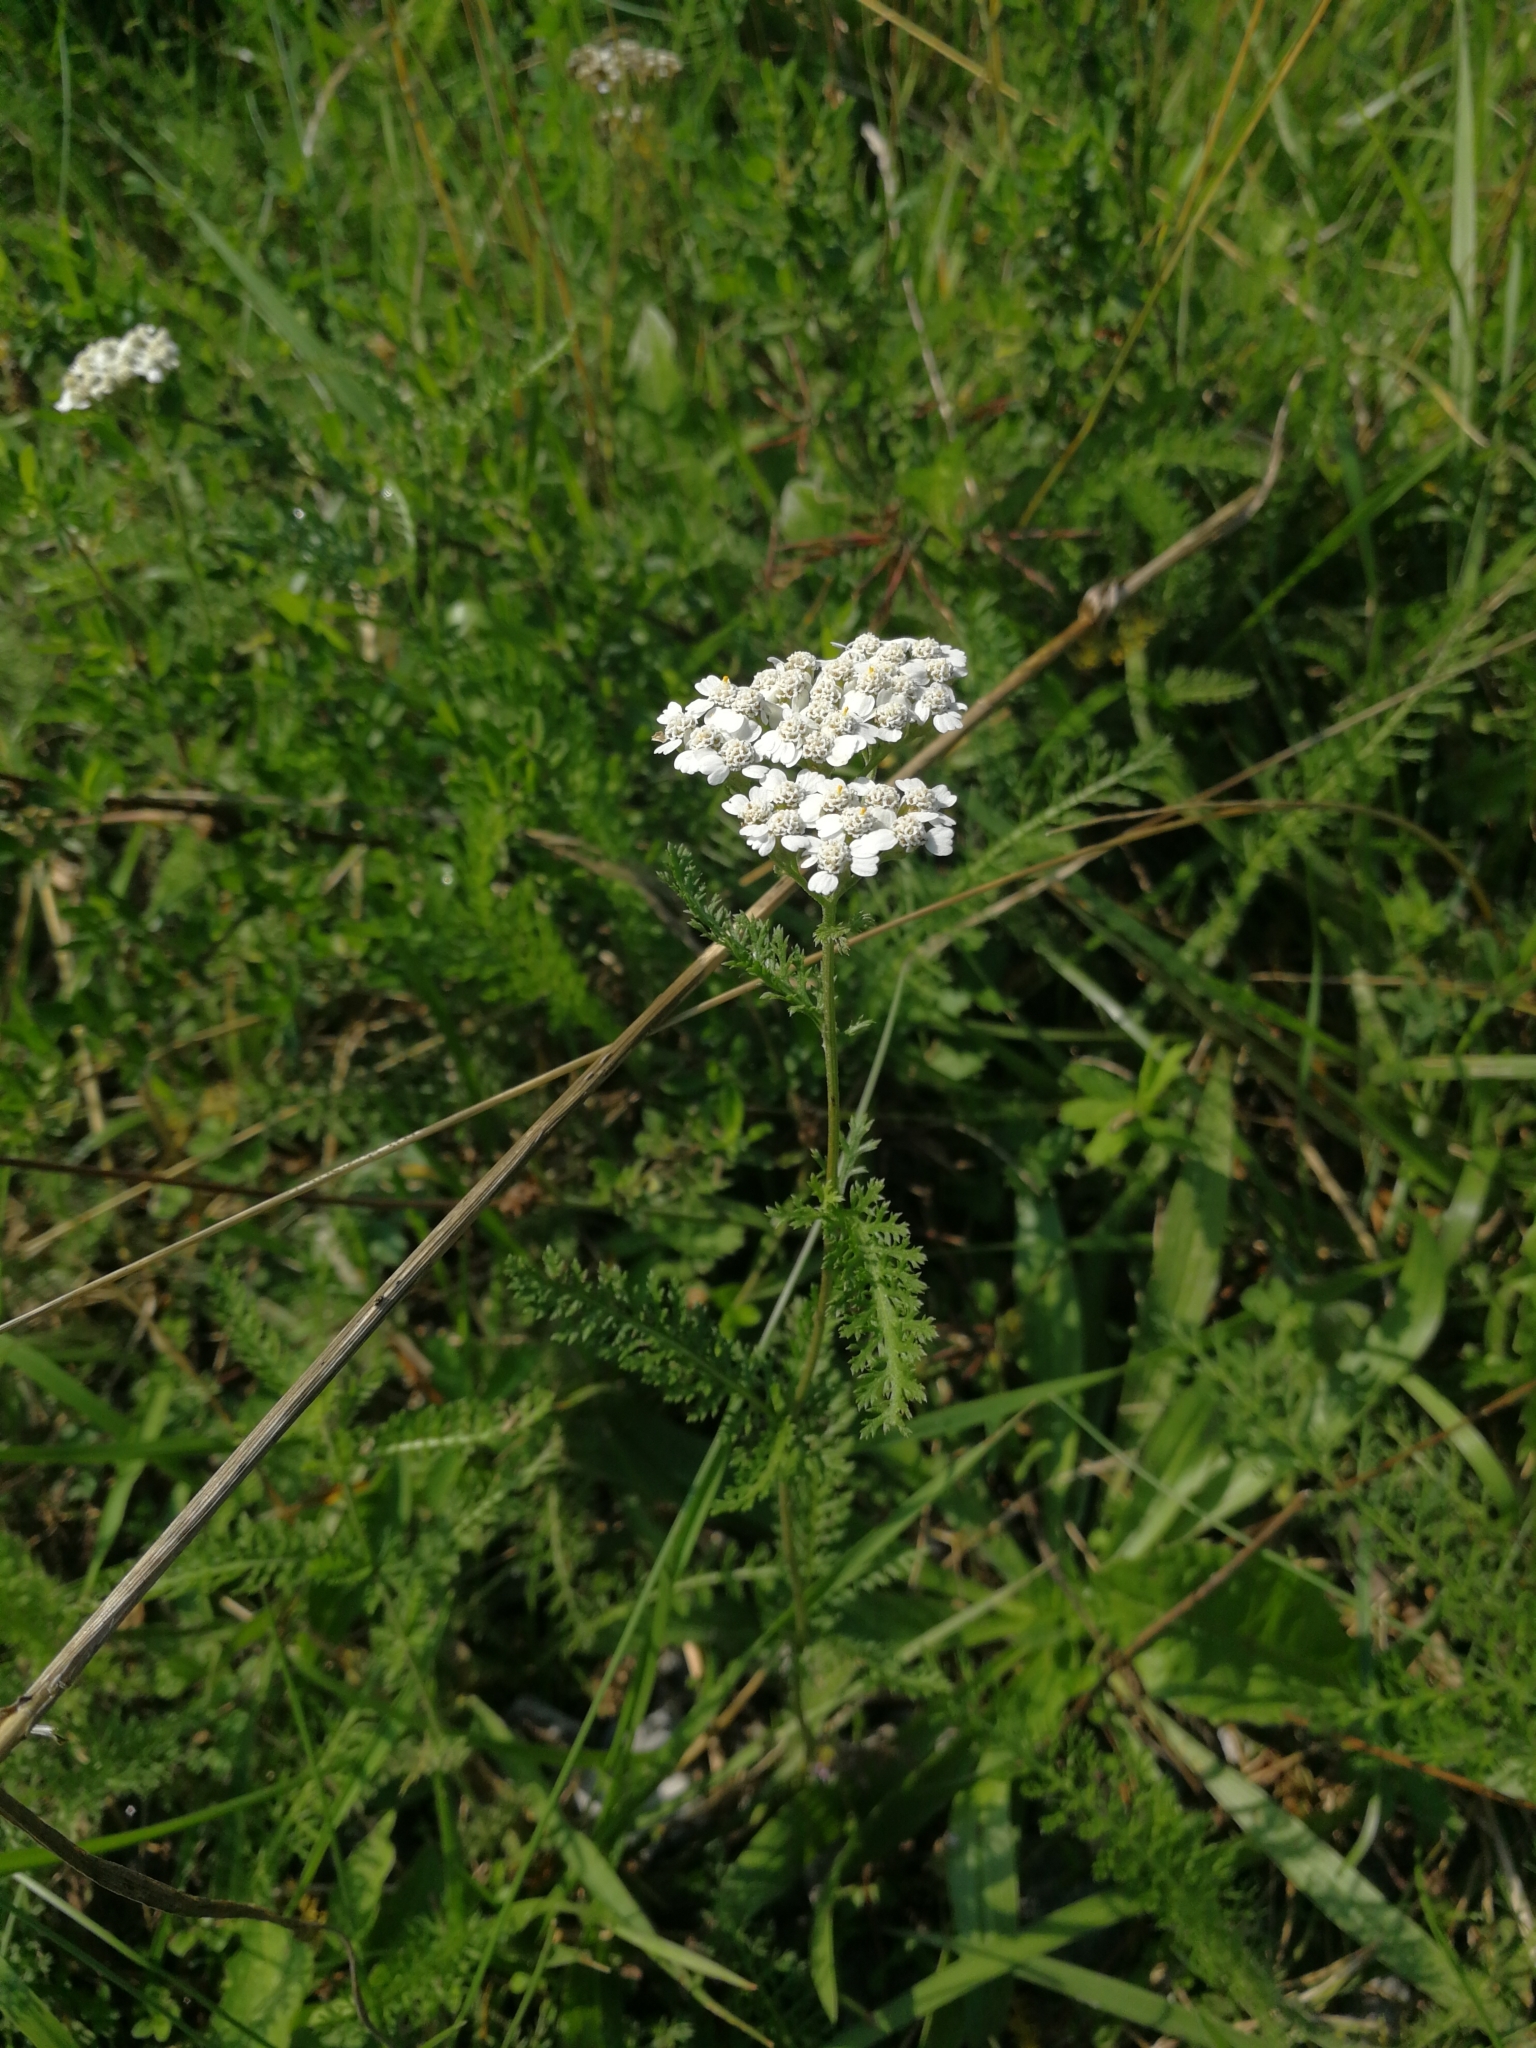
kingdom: Plantae
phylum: Tracheophyta
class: Magnoliopsida
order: Asterales
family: Asteraceae
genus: Achillea
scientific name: Achillea millefolium
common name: Yarrow
